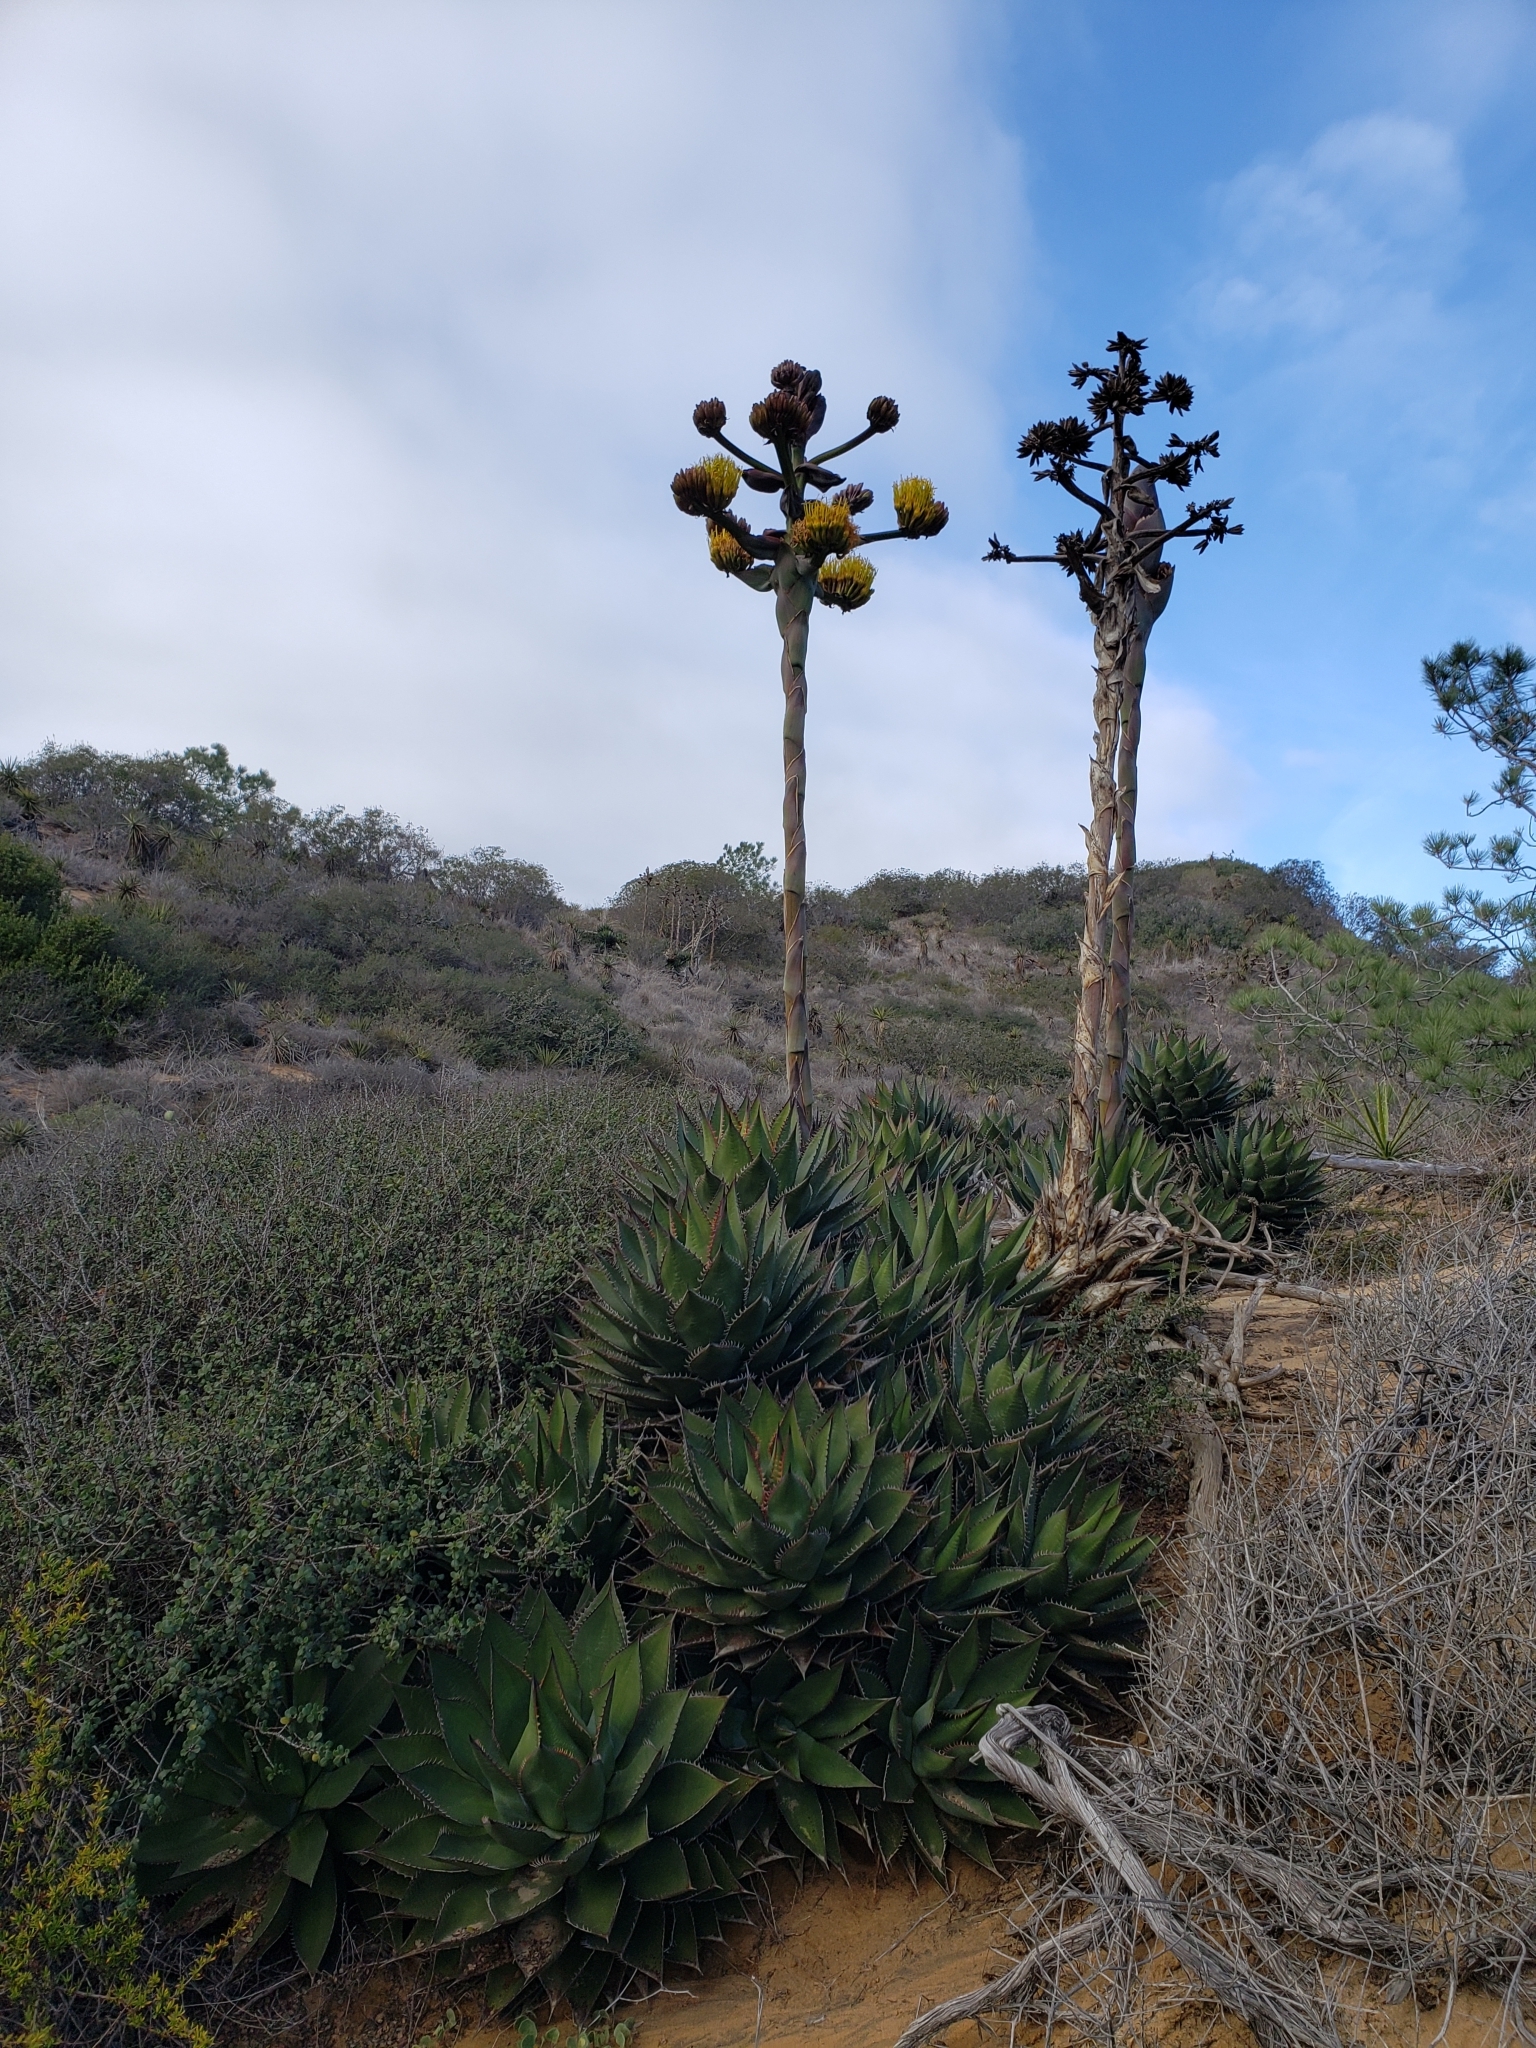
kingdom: Plantae
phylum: Tracheophyta
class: Liliopsida
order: Asparagales
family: Asparagaceae
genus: Agave
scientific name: Agave shawii
